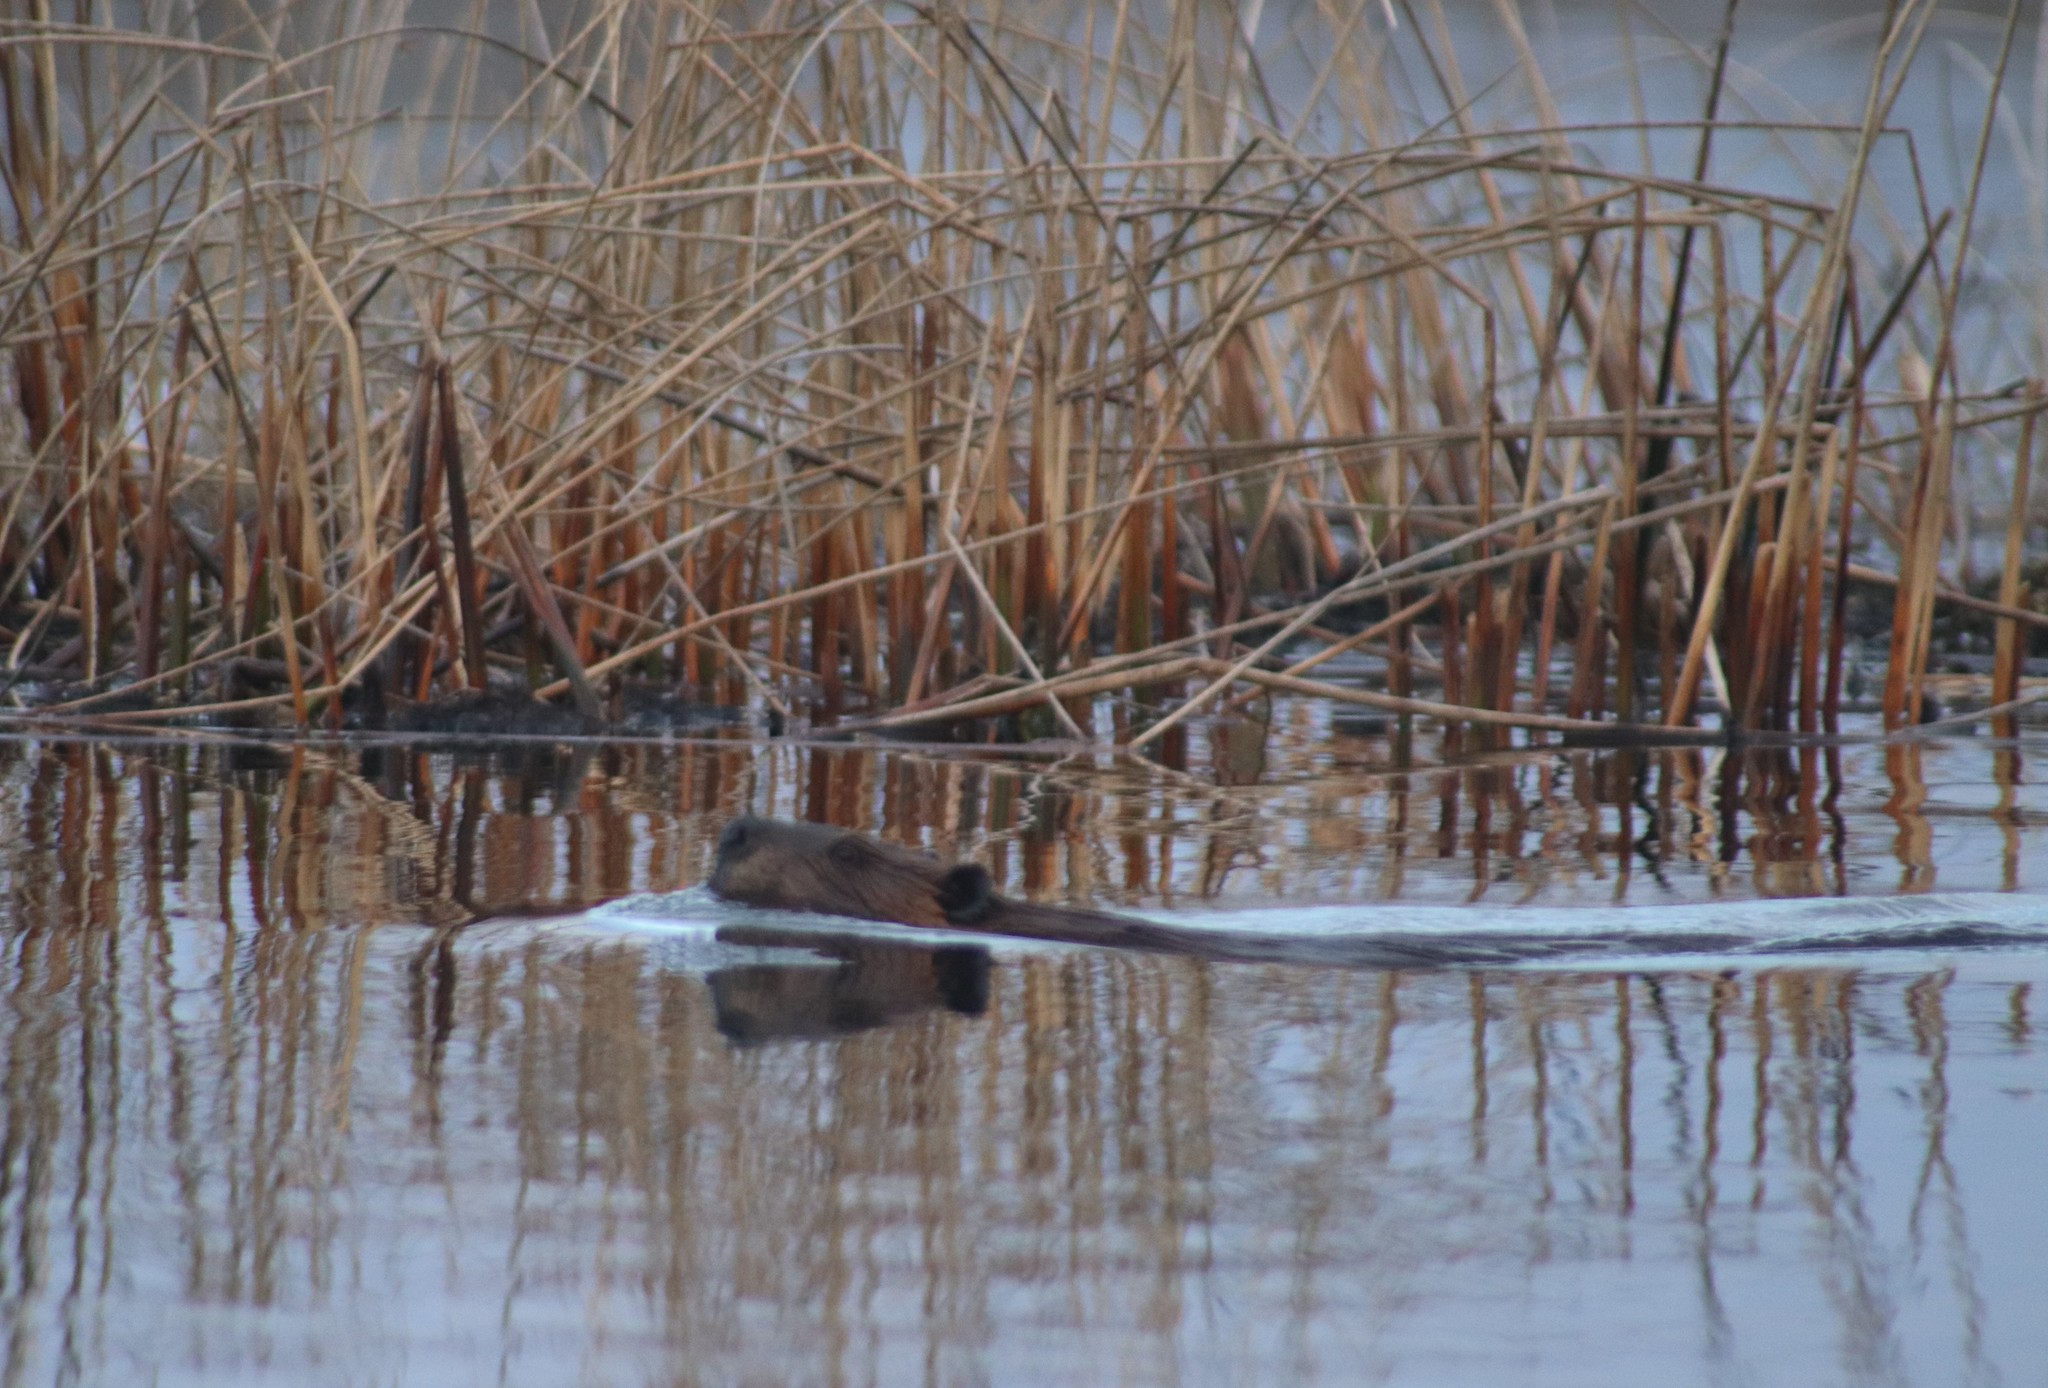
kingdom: Animalia
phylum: Chordata
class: Mammalia
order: Rodentia
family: Castoridae
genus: Castor
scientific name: Castor canadensis
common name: American beaver
